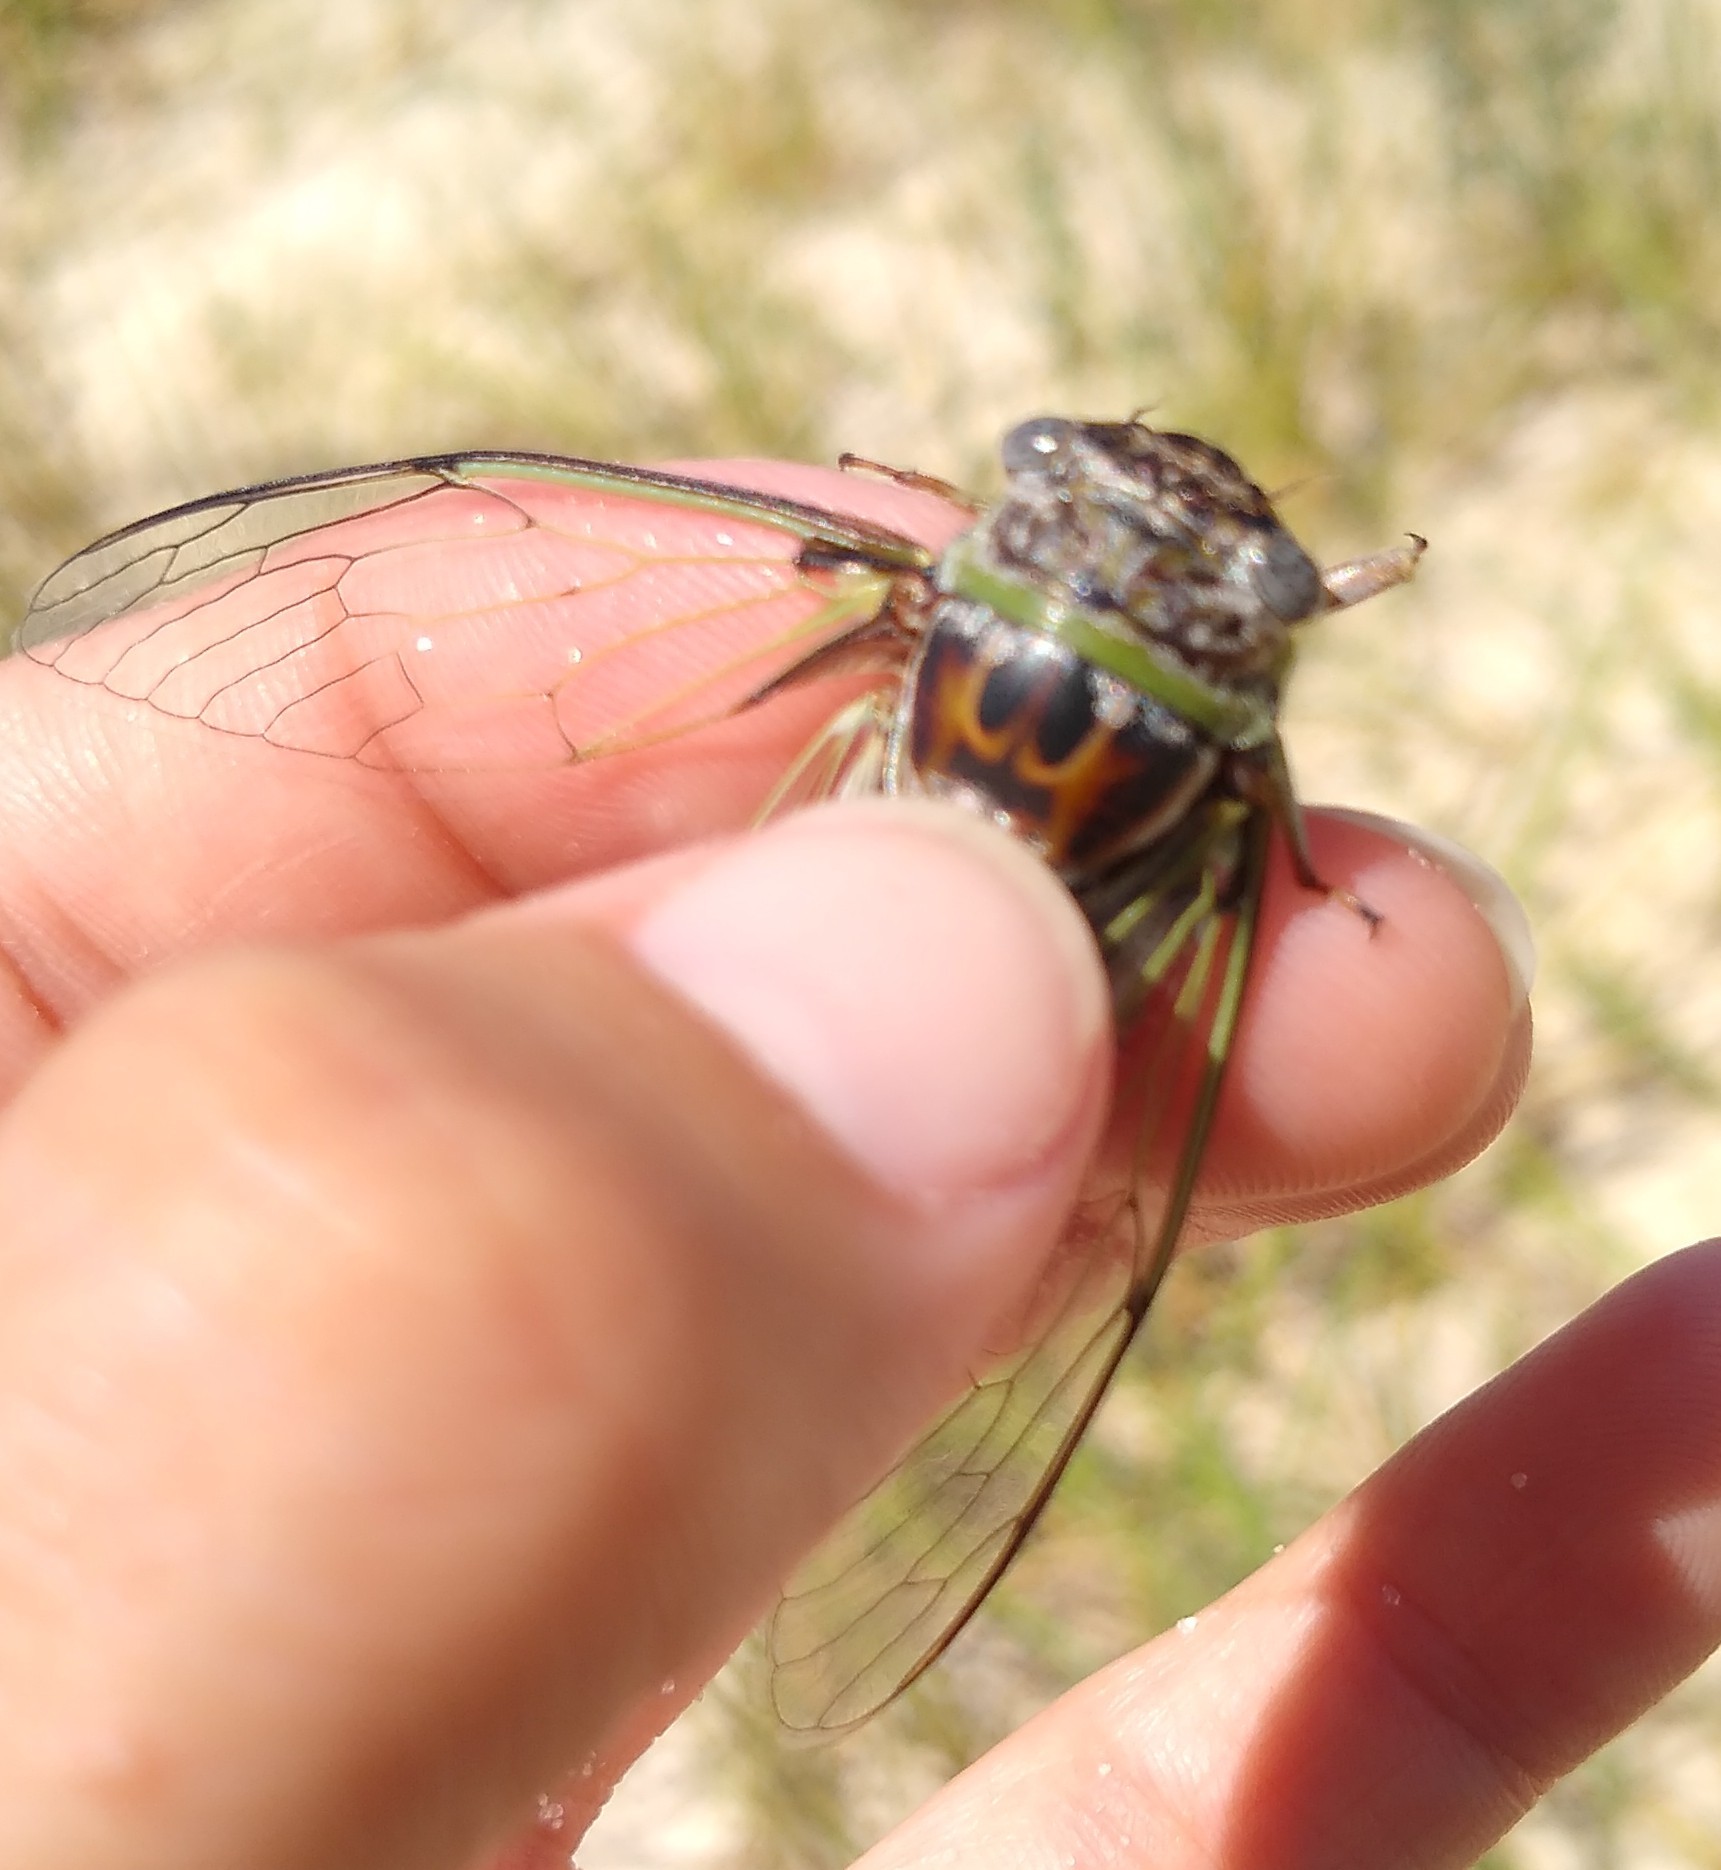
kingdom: Animalia
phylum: Arthropoda
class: Insecta
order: Hemiptera
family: Cicadidae
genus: Diceroprocta
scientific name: Diceroprocta viridifascia
